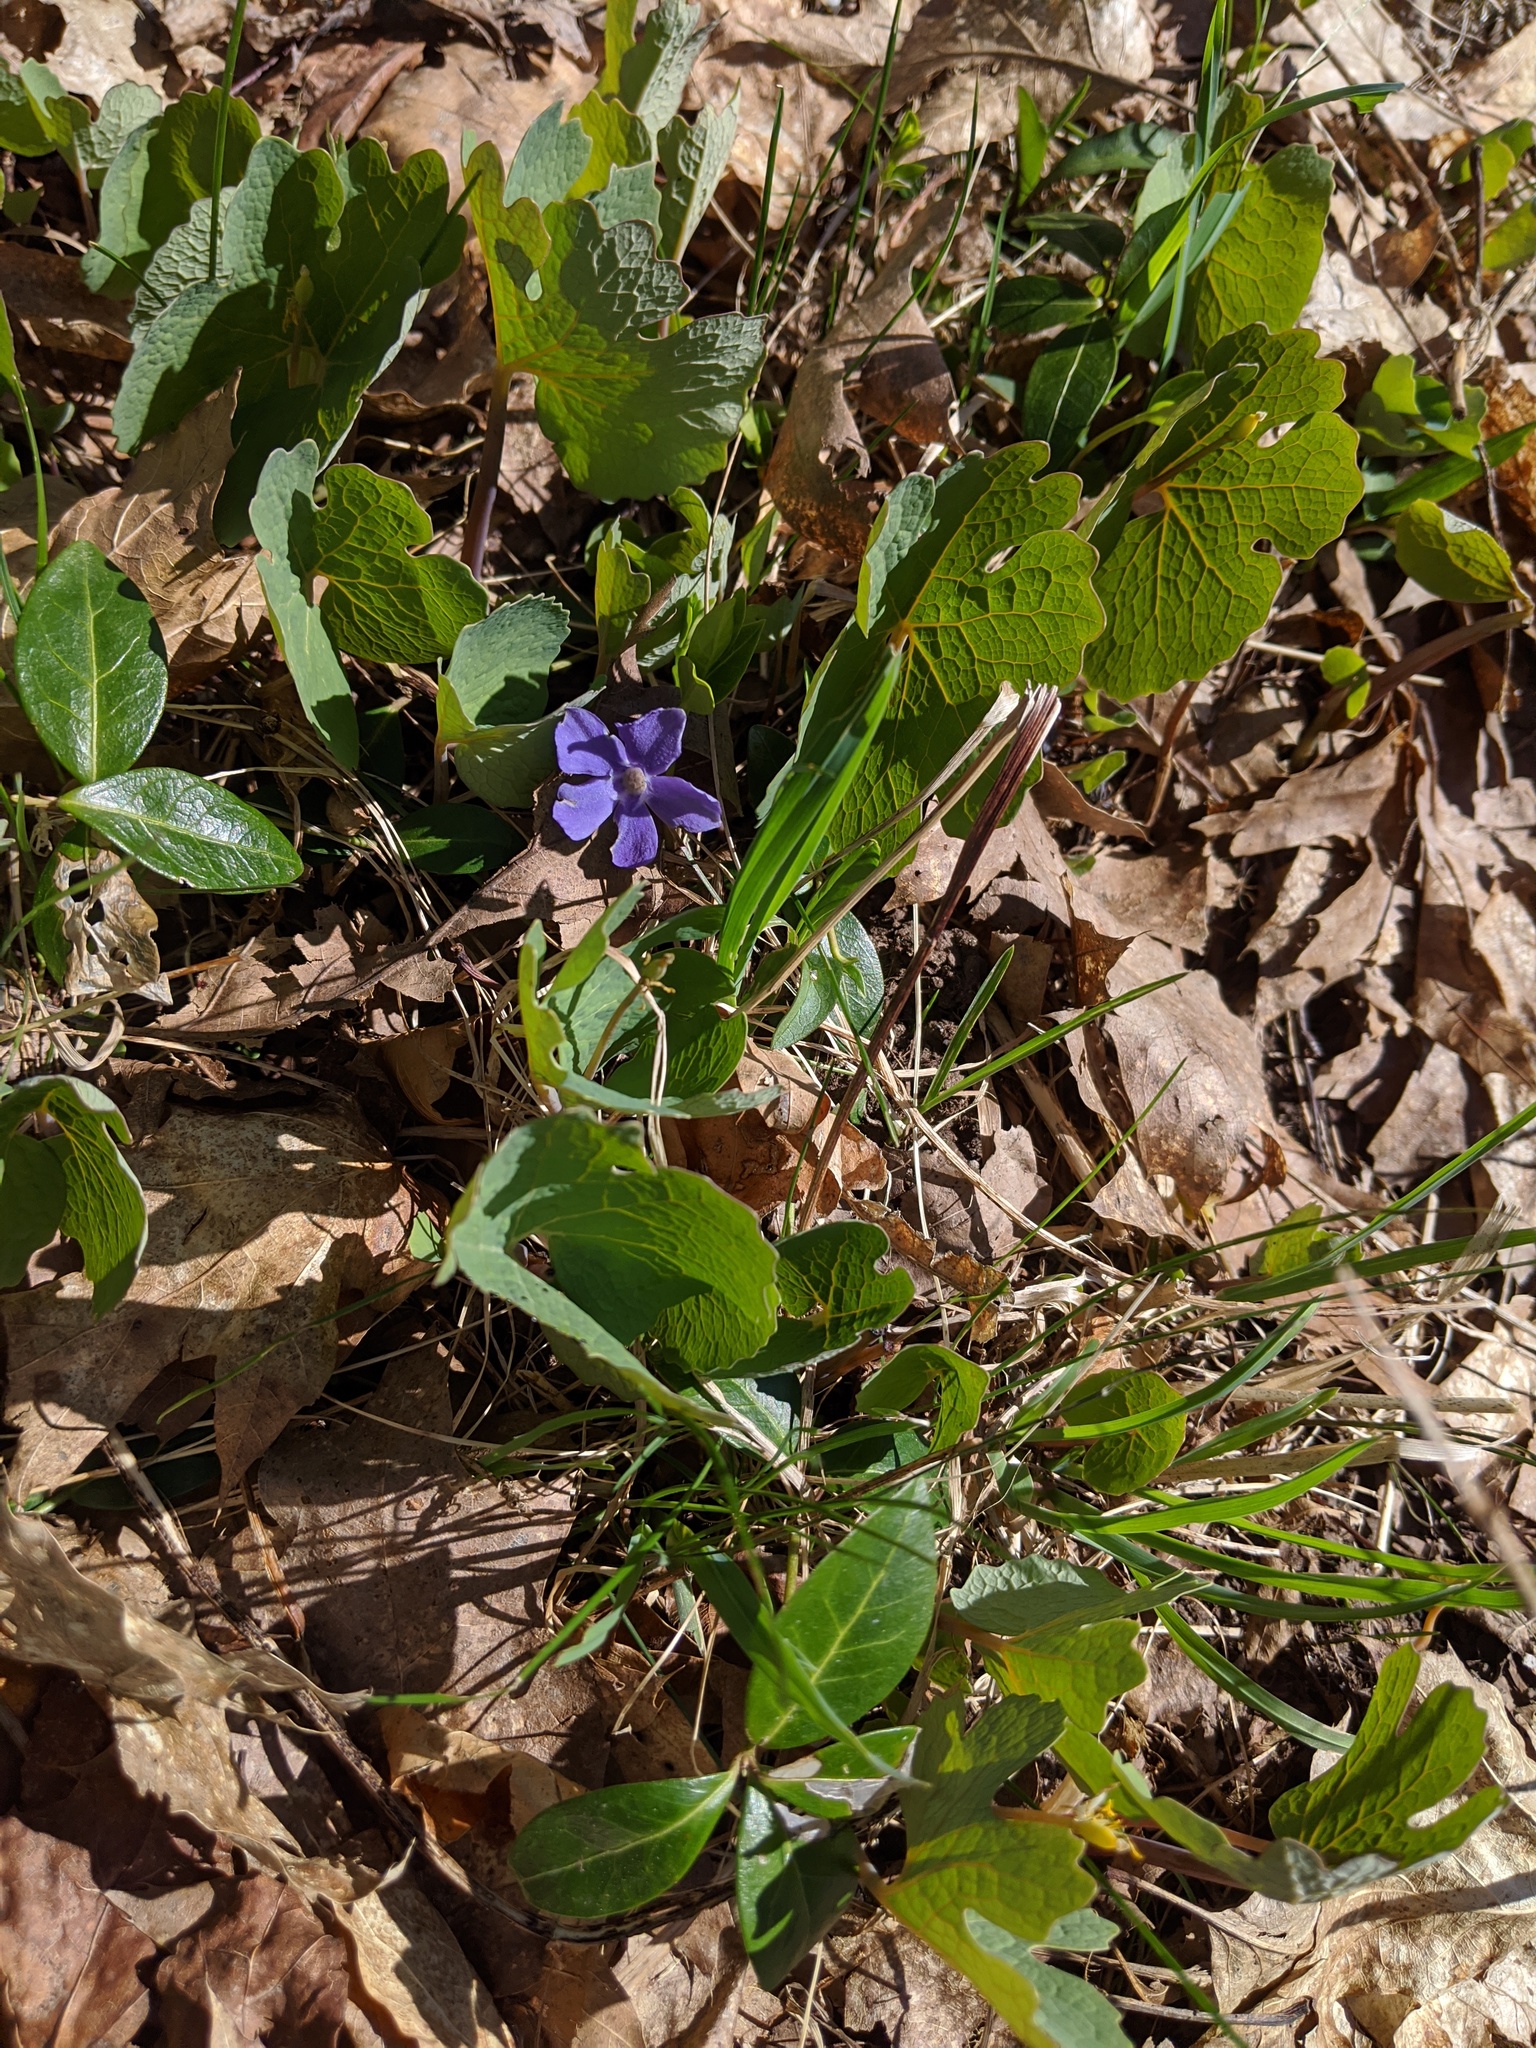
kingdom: Plantae
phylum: Tracheophyta
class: Magnoliopsida
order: Gentianales
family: Apocynaceae
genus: Vinca
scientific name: Vinca minor
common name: Lesser periwinkle
